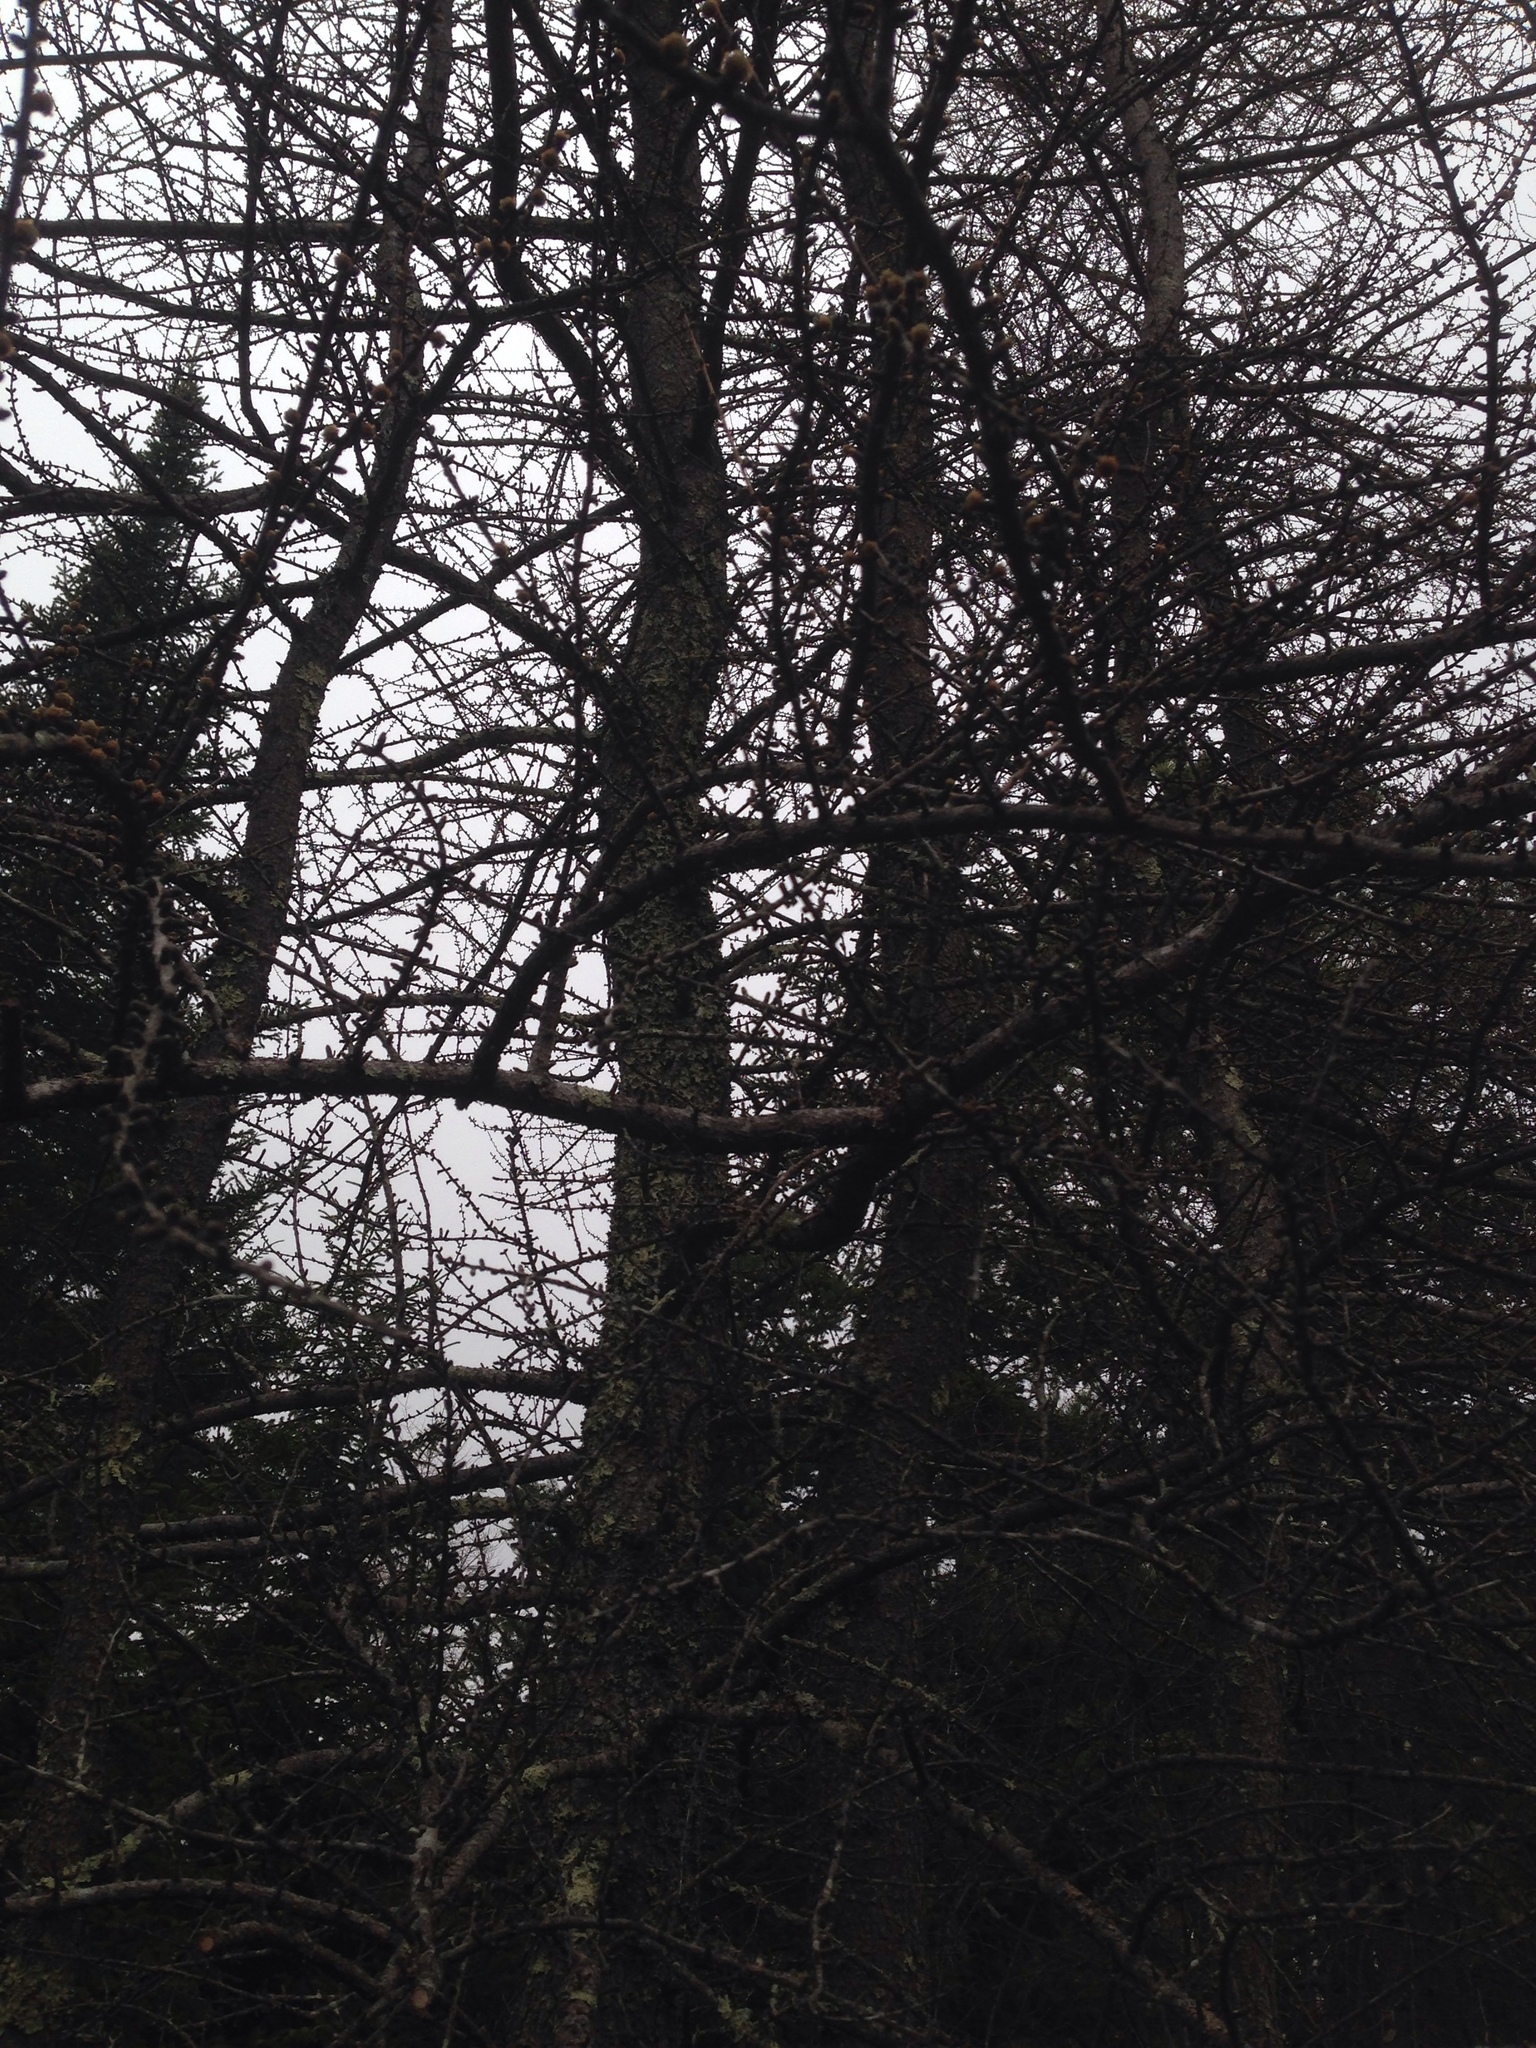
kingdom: Plantae
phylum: Tracheophyta
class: Pinopsida
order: Pinales
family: Pinaceae
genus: Larix
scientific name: Larix laricina
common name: American larch
